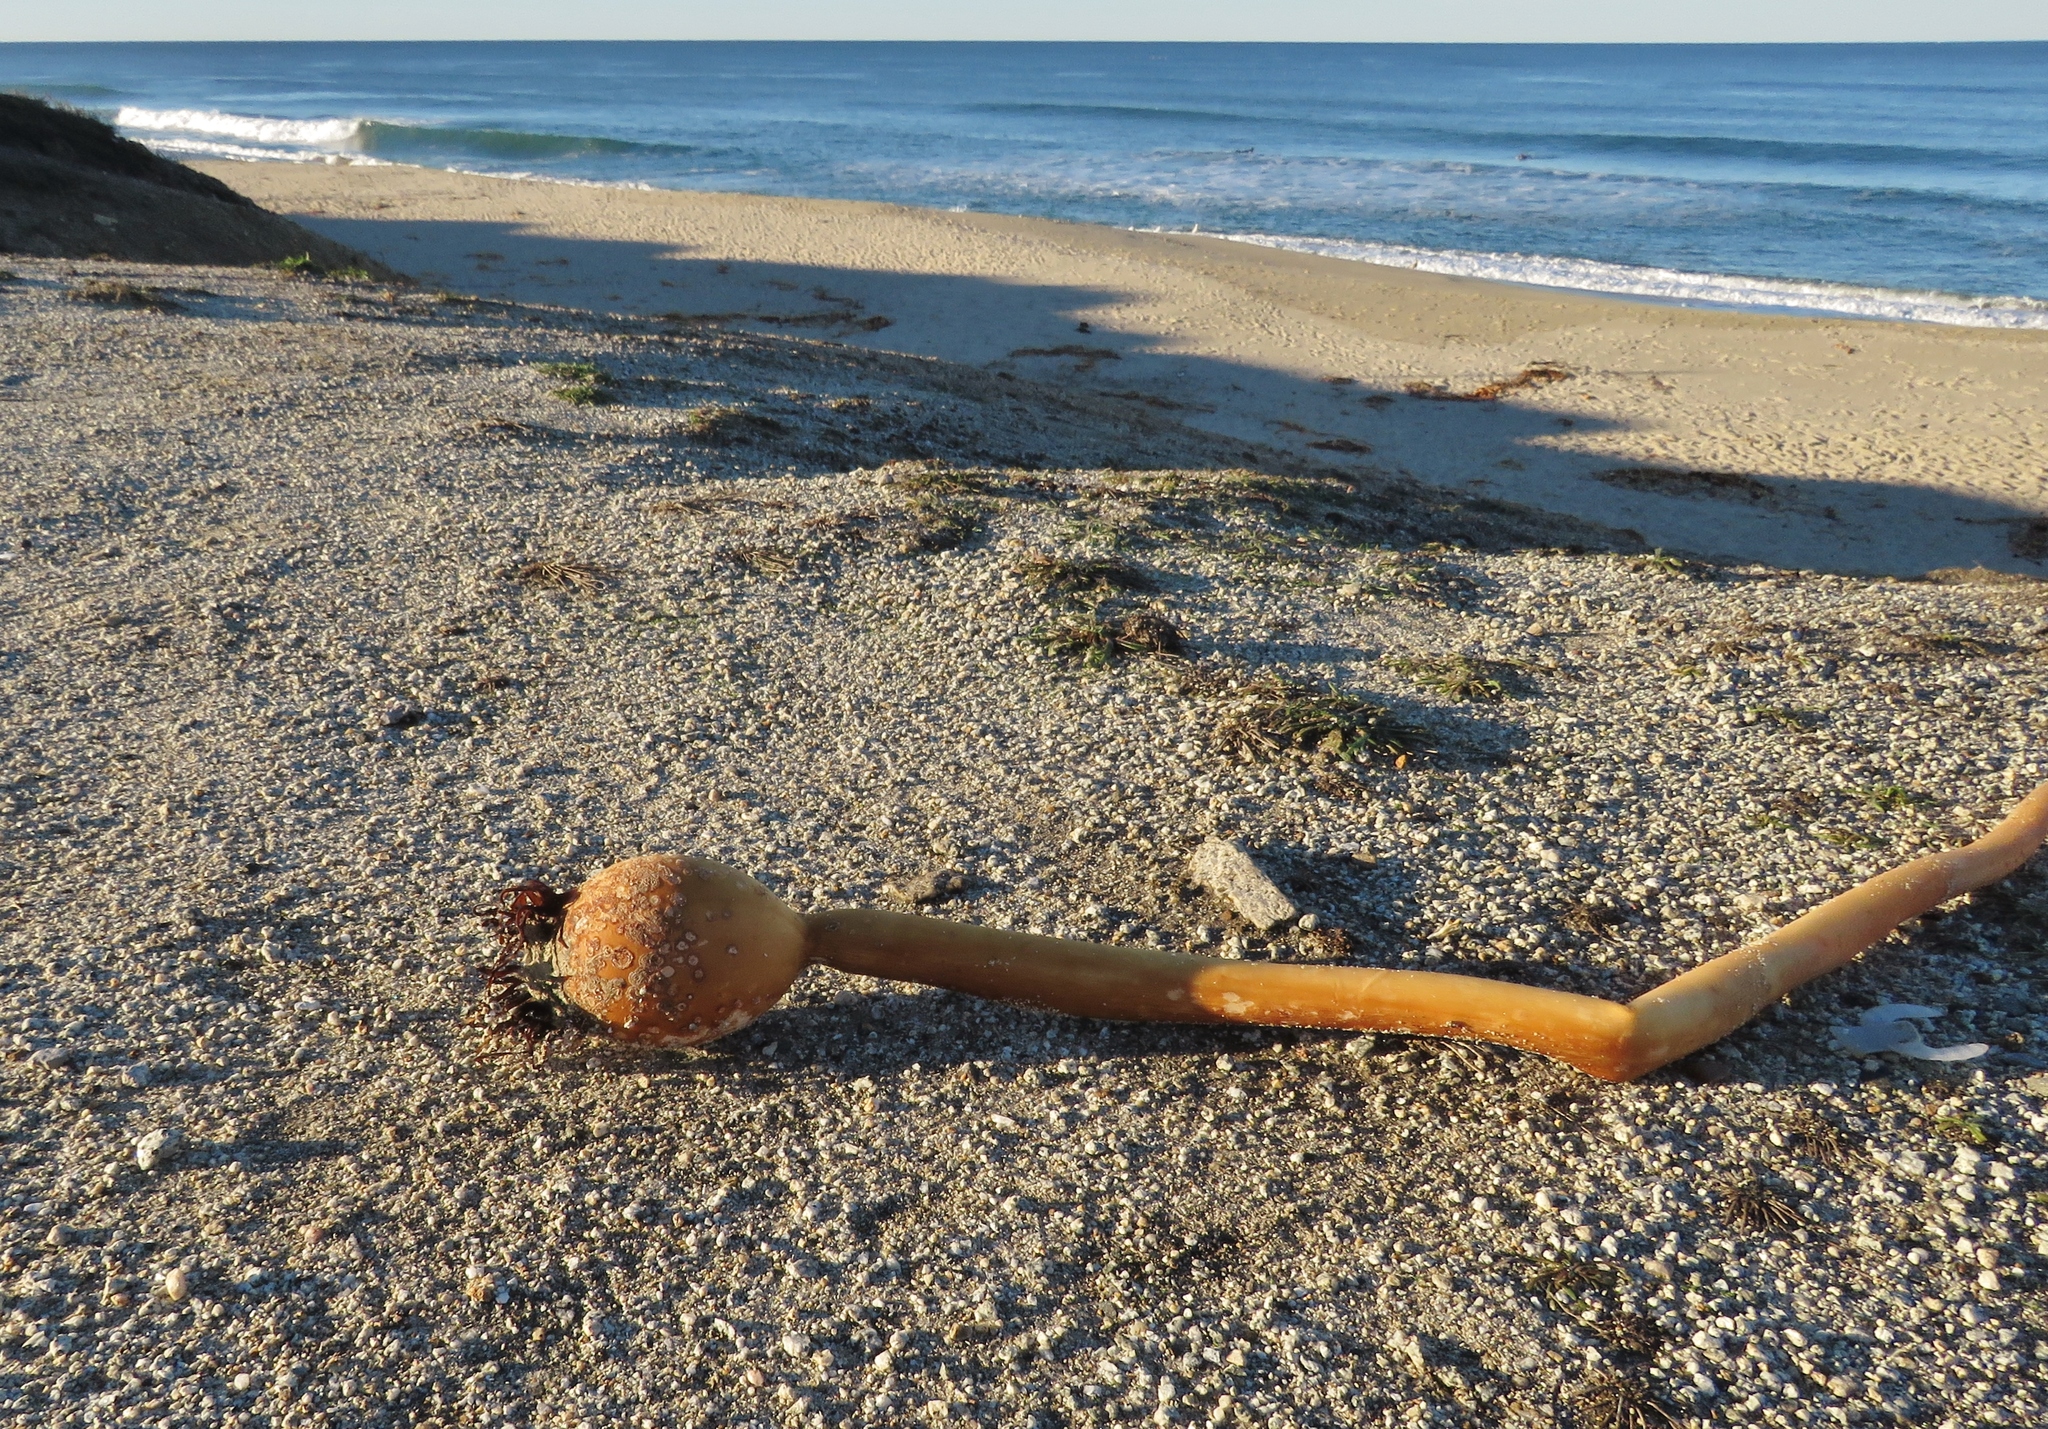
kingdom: Chromista
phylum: Ochrophyta
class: Phaeophyceae
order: Laminariales
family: Laminariaceae
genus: Nereocystis
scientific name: Nereocystis luetkeana
